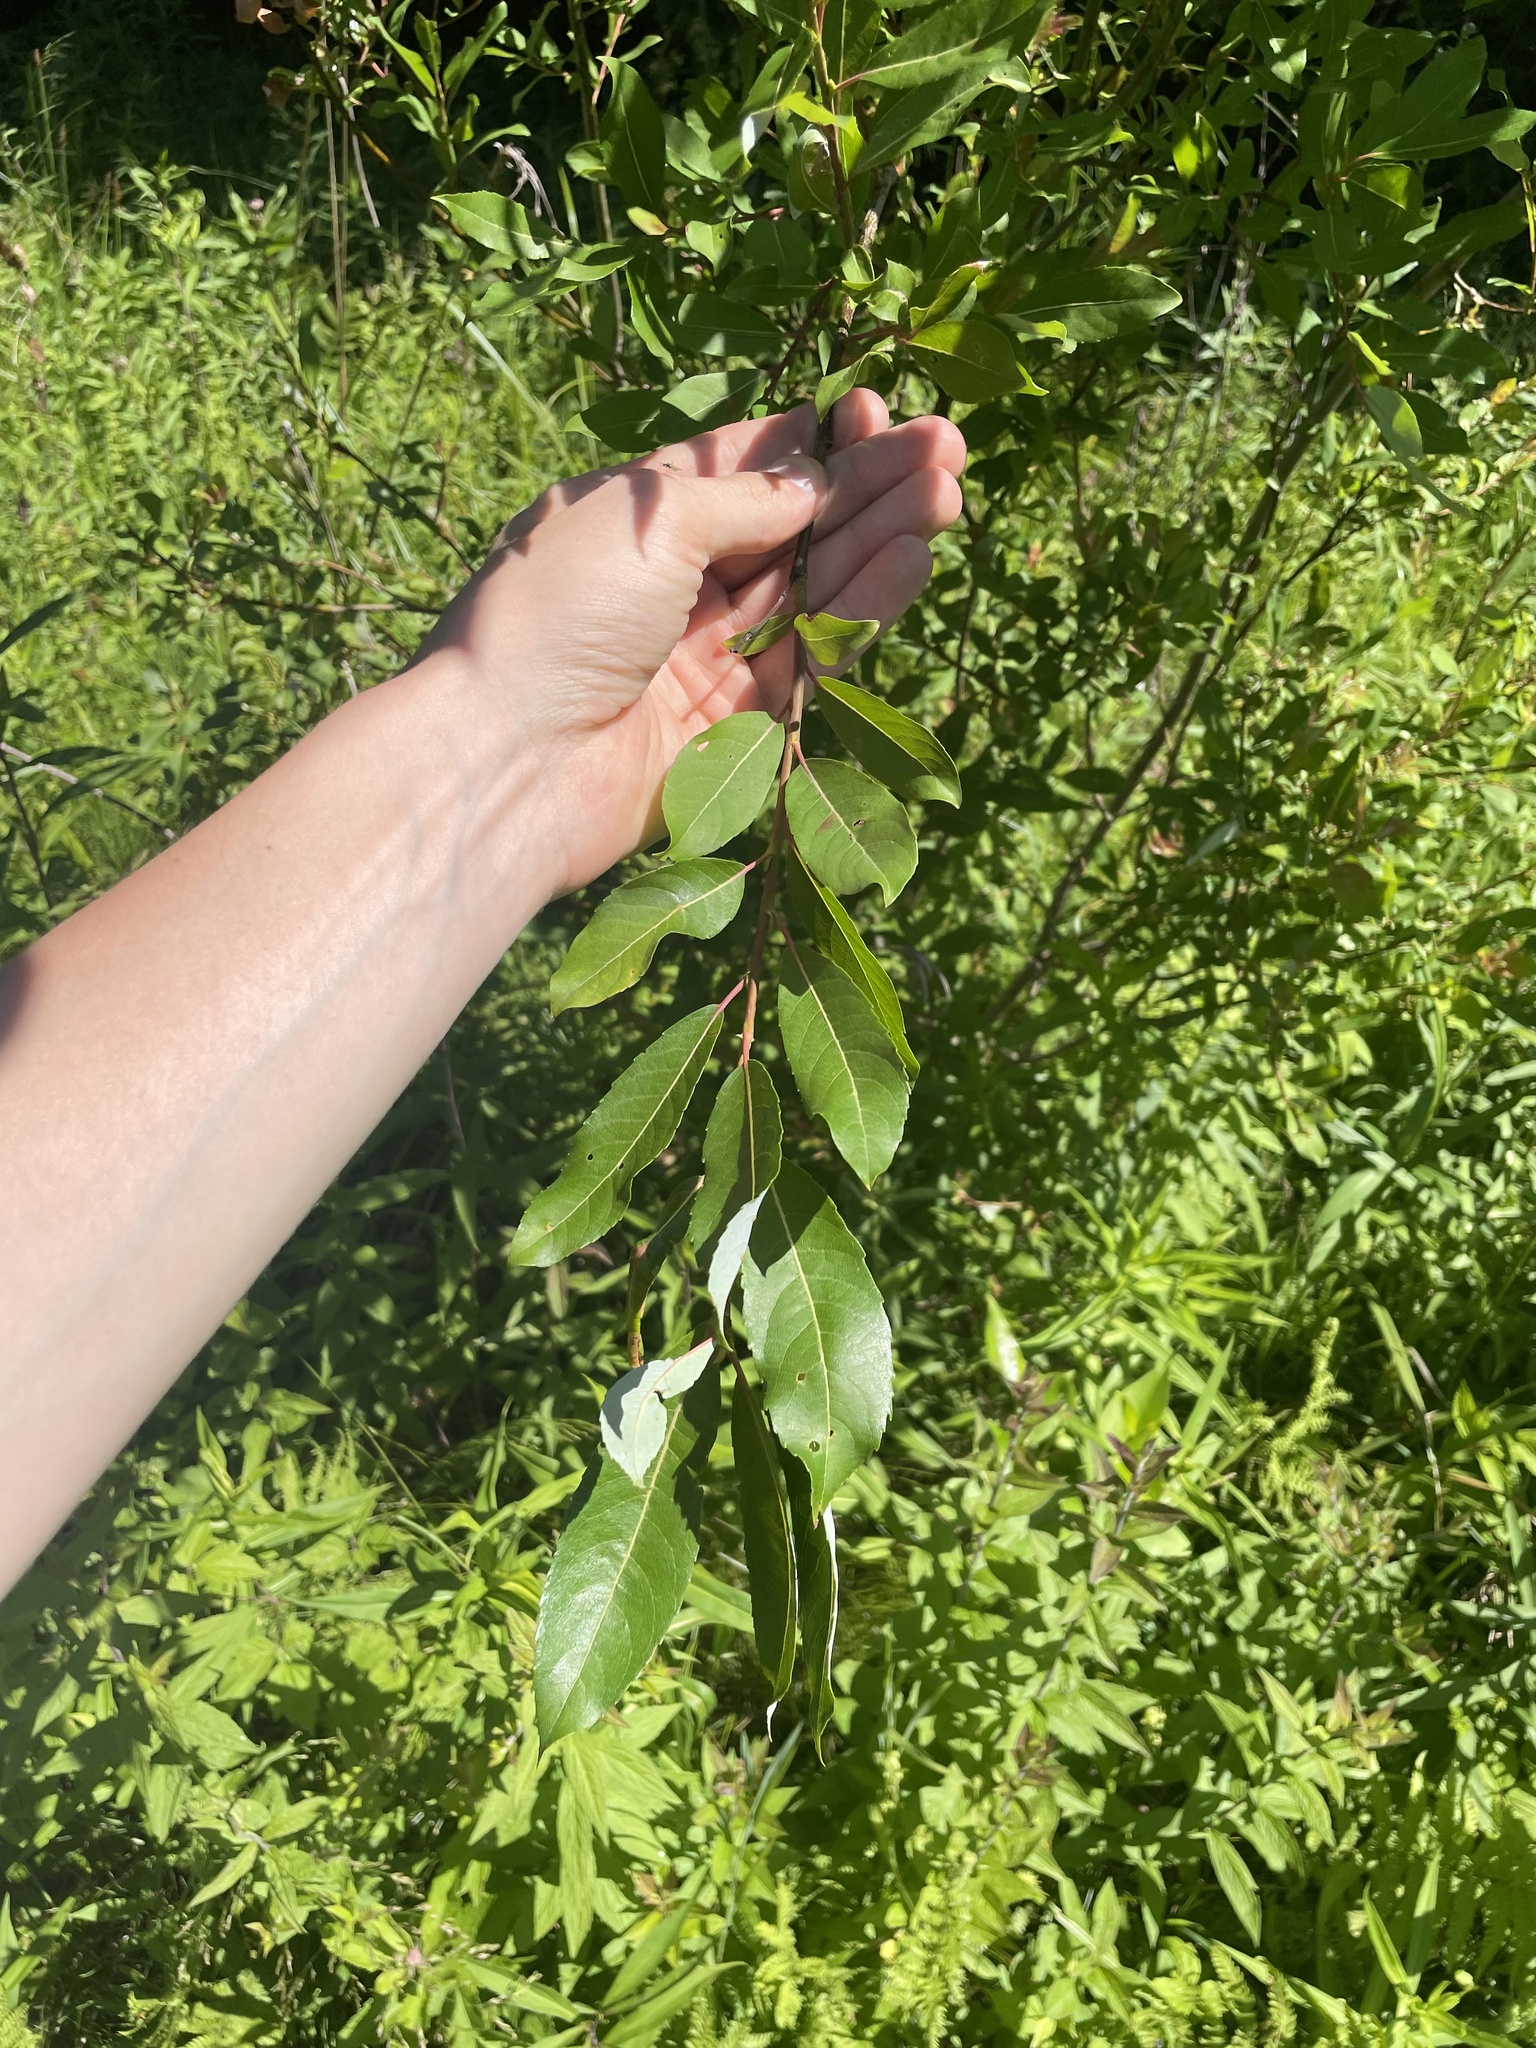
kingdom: Plantae
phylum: Tracheophyta
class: Magnoliopsida
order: Malpighiales
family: Salicaceae
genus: Salix
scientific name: Salix discolor
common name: Glaucous willow
